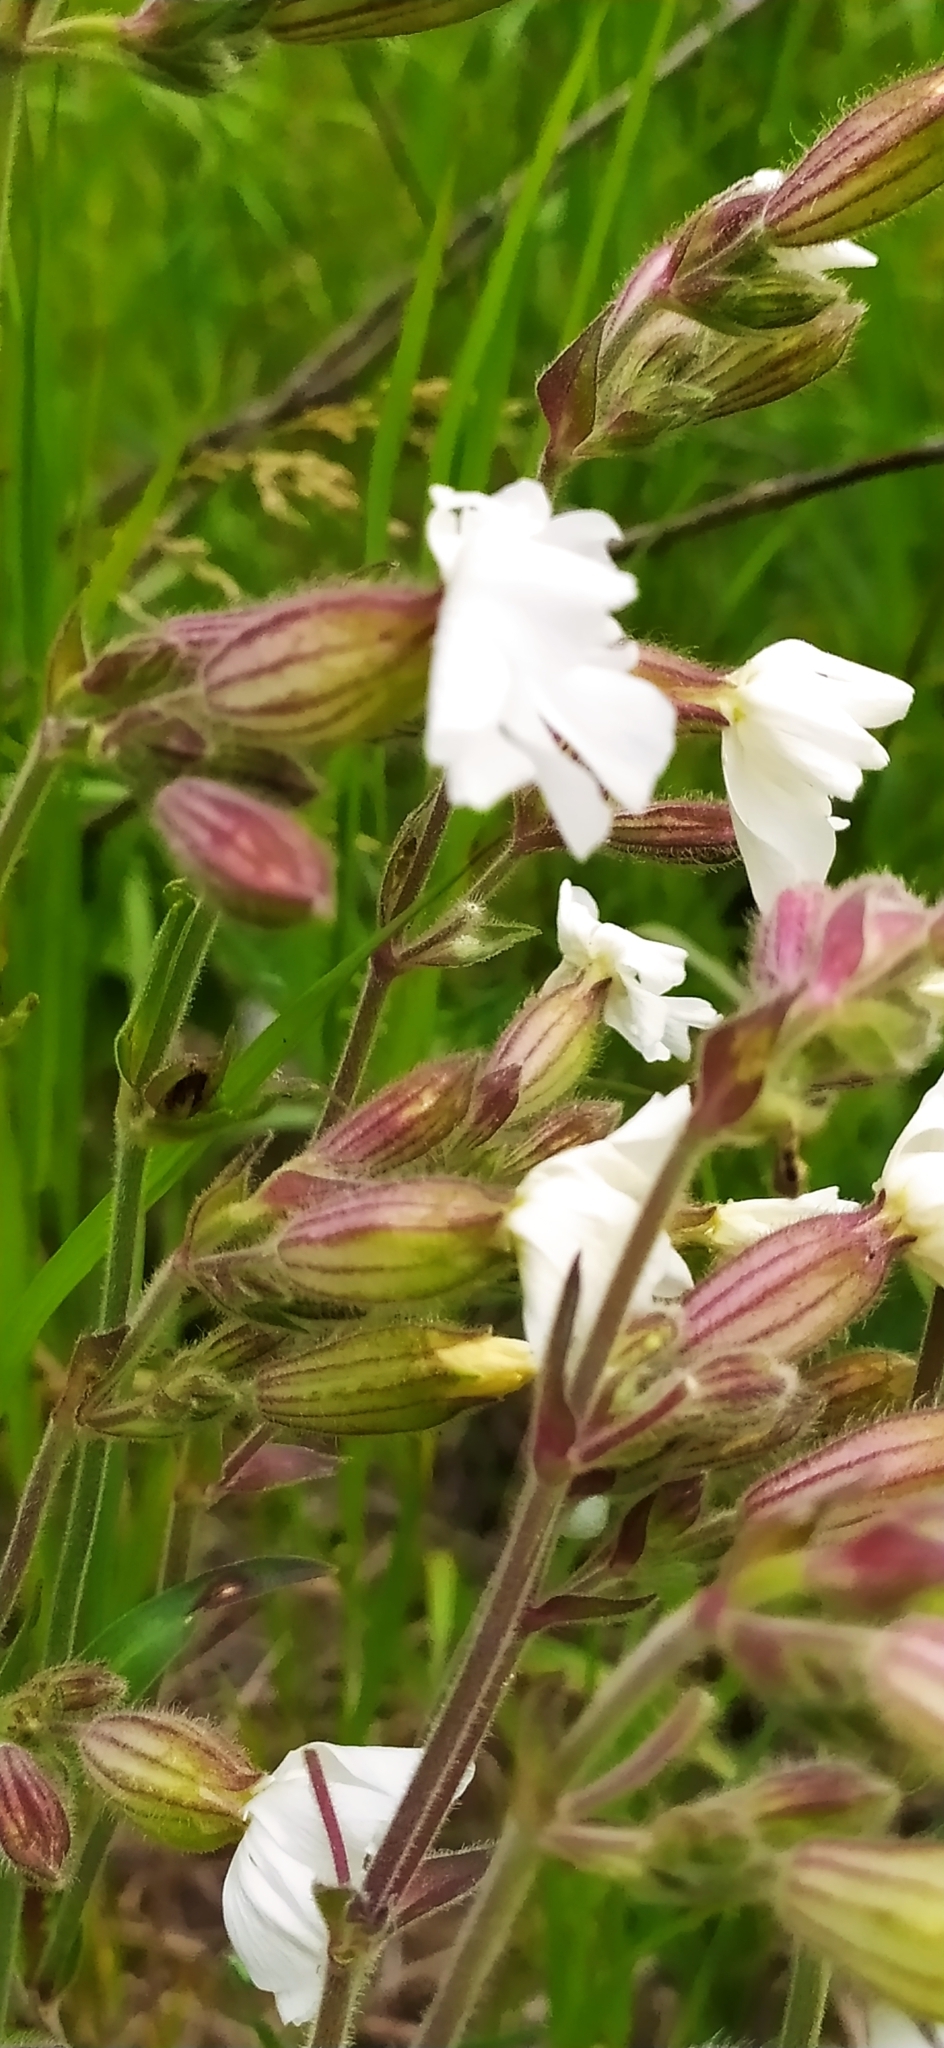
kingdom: Plantae
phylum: Tracheophyta
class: Magnoliopsida
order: Caryophyllales
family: Caryophyllaceae
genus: Silene
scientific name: Silene latifolia
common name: White campion
